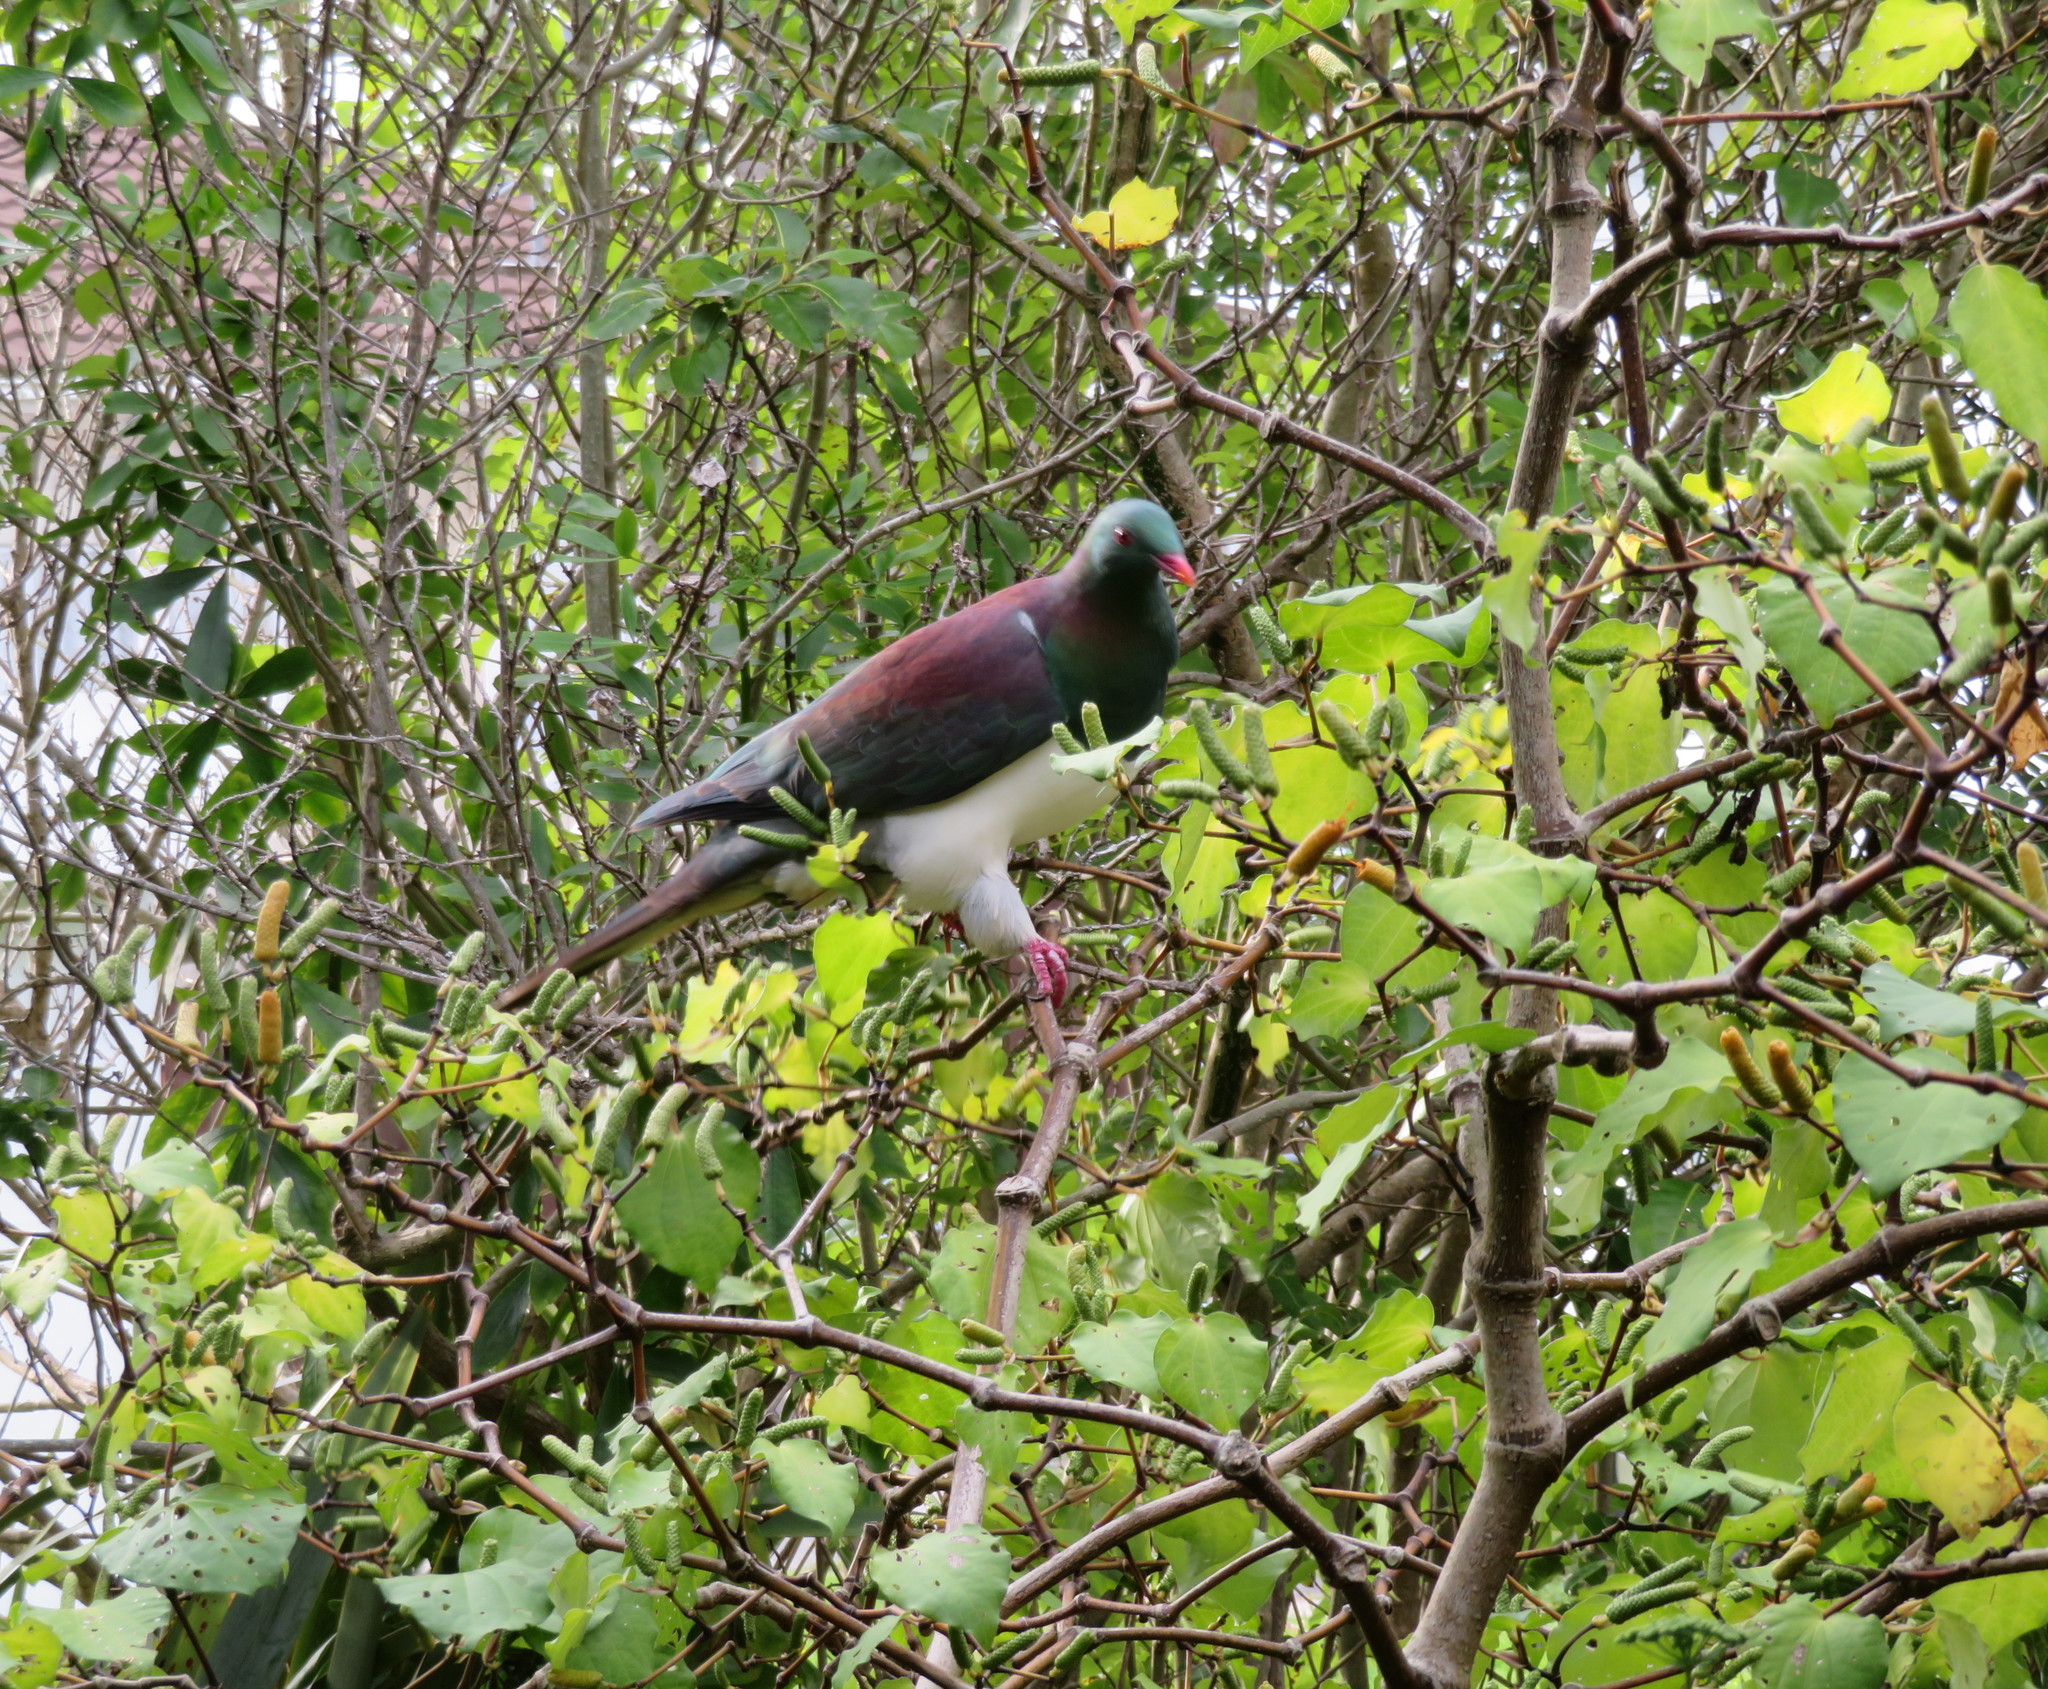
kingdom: Plantae
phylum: Tracheophyta
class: Magnoliopsida
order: Piperales
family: Piperaceae
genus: Macropiper
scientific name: Macropiper excelsum
